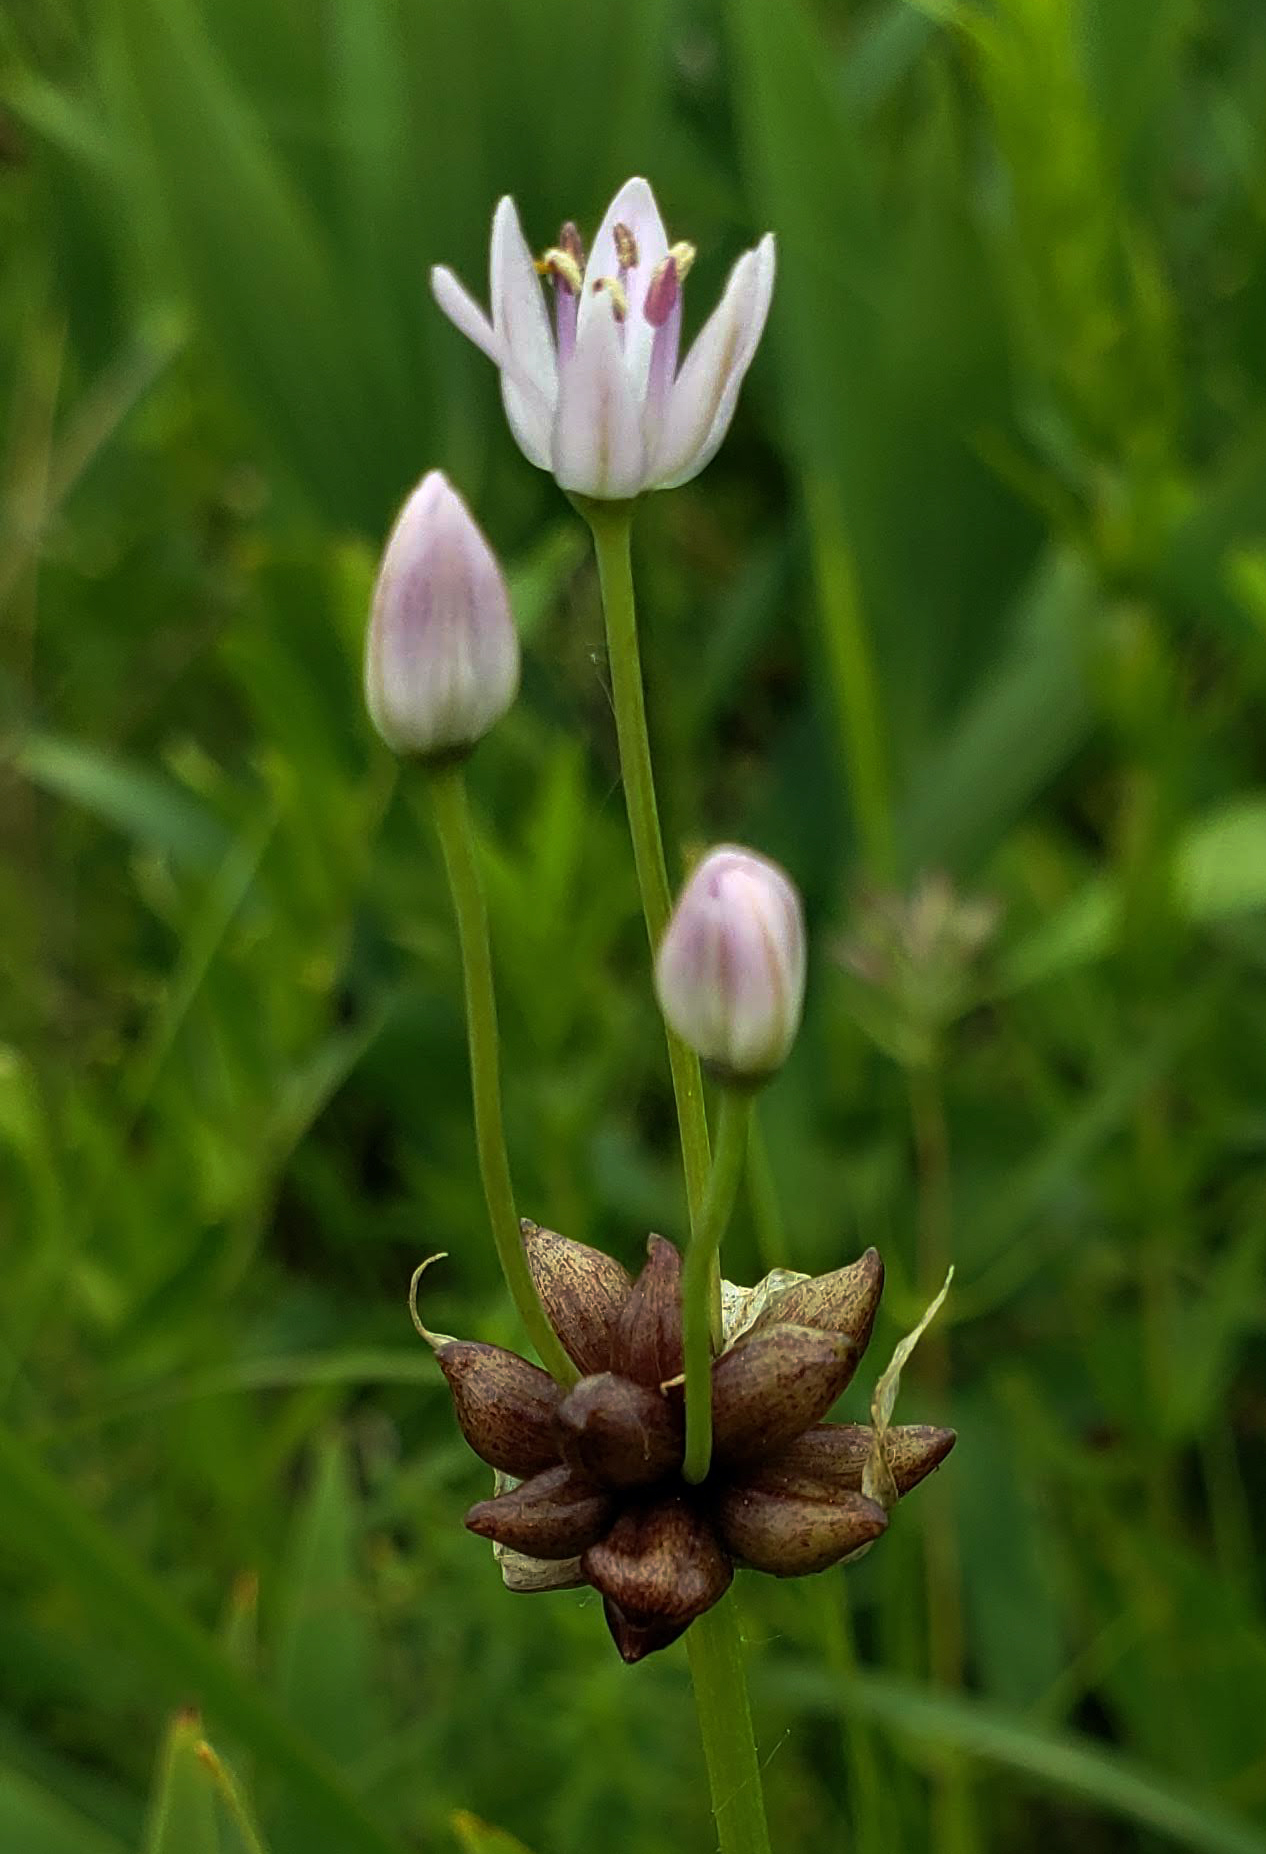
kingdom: Plantae
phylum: Tracheophyta
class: Liliopsida
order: Asparagales
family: Amaryllidaceae
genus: Allium
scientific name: Allium canadense
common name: Meadow garlic
